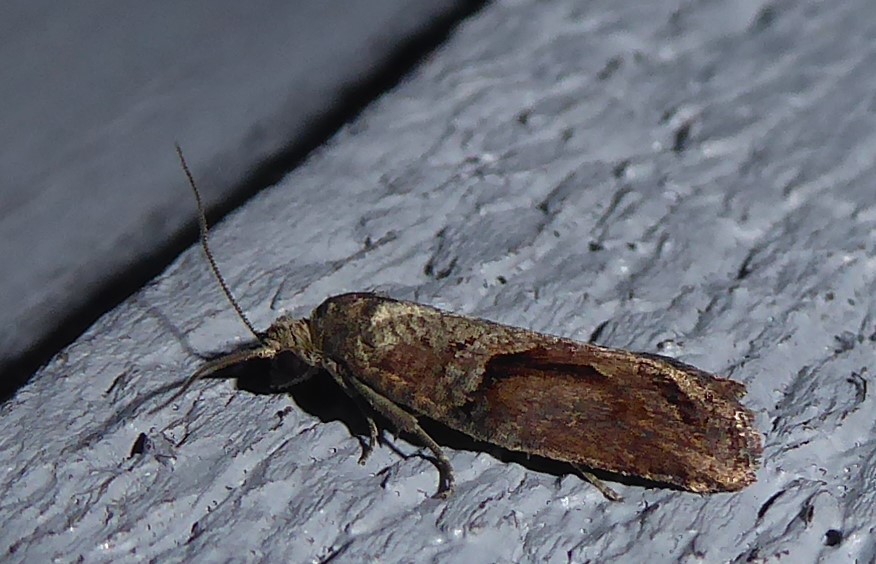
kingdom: Animalia
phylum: Arthropoda
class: Insecta
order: Lepidoptera
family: Tortricidae
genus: Harmologa
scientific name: Harmologa oblongana
